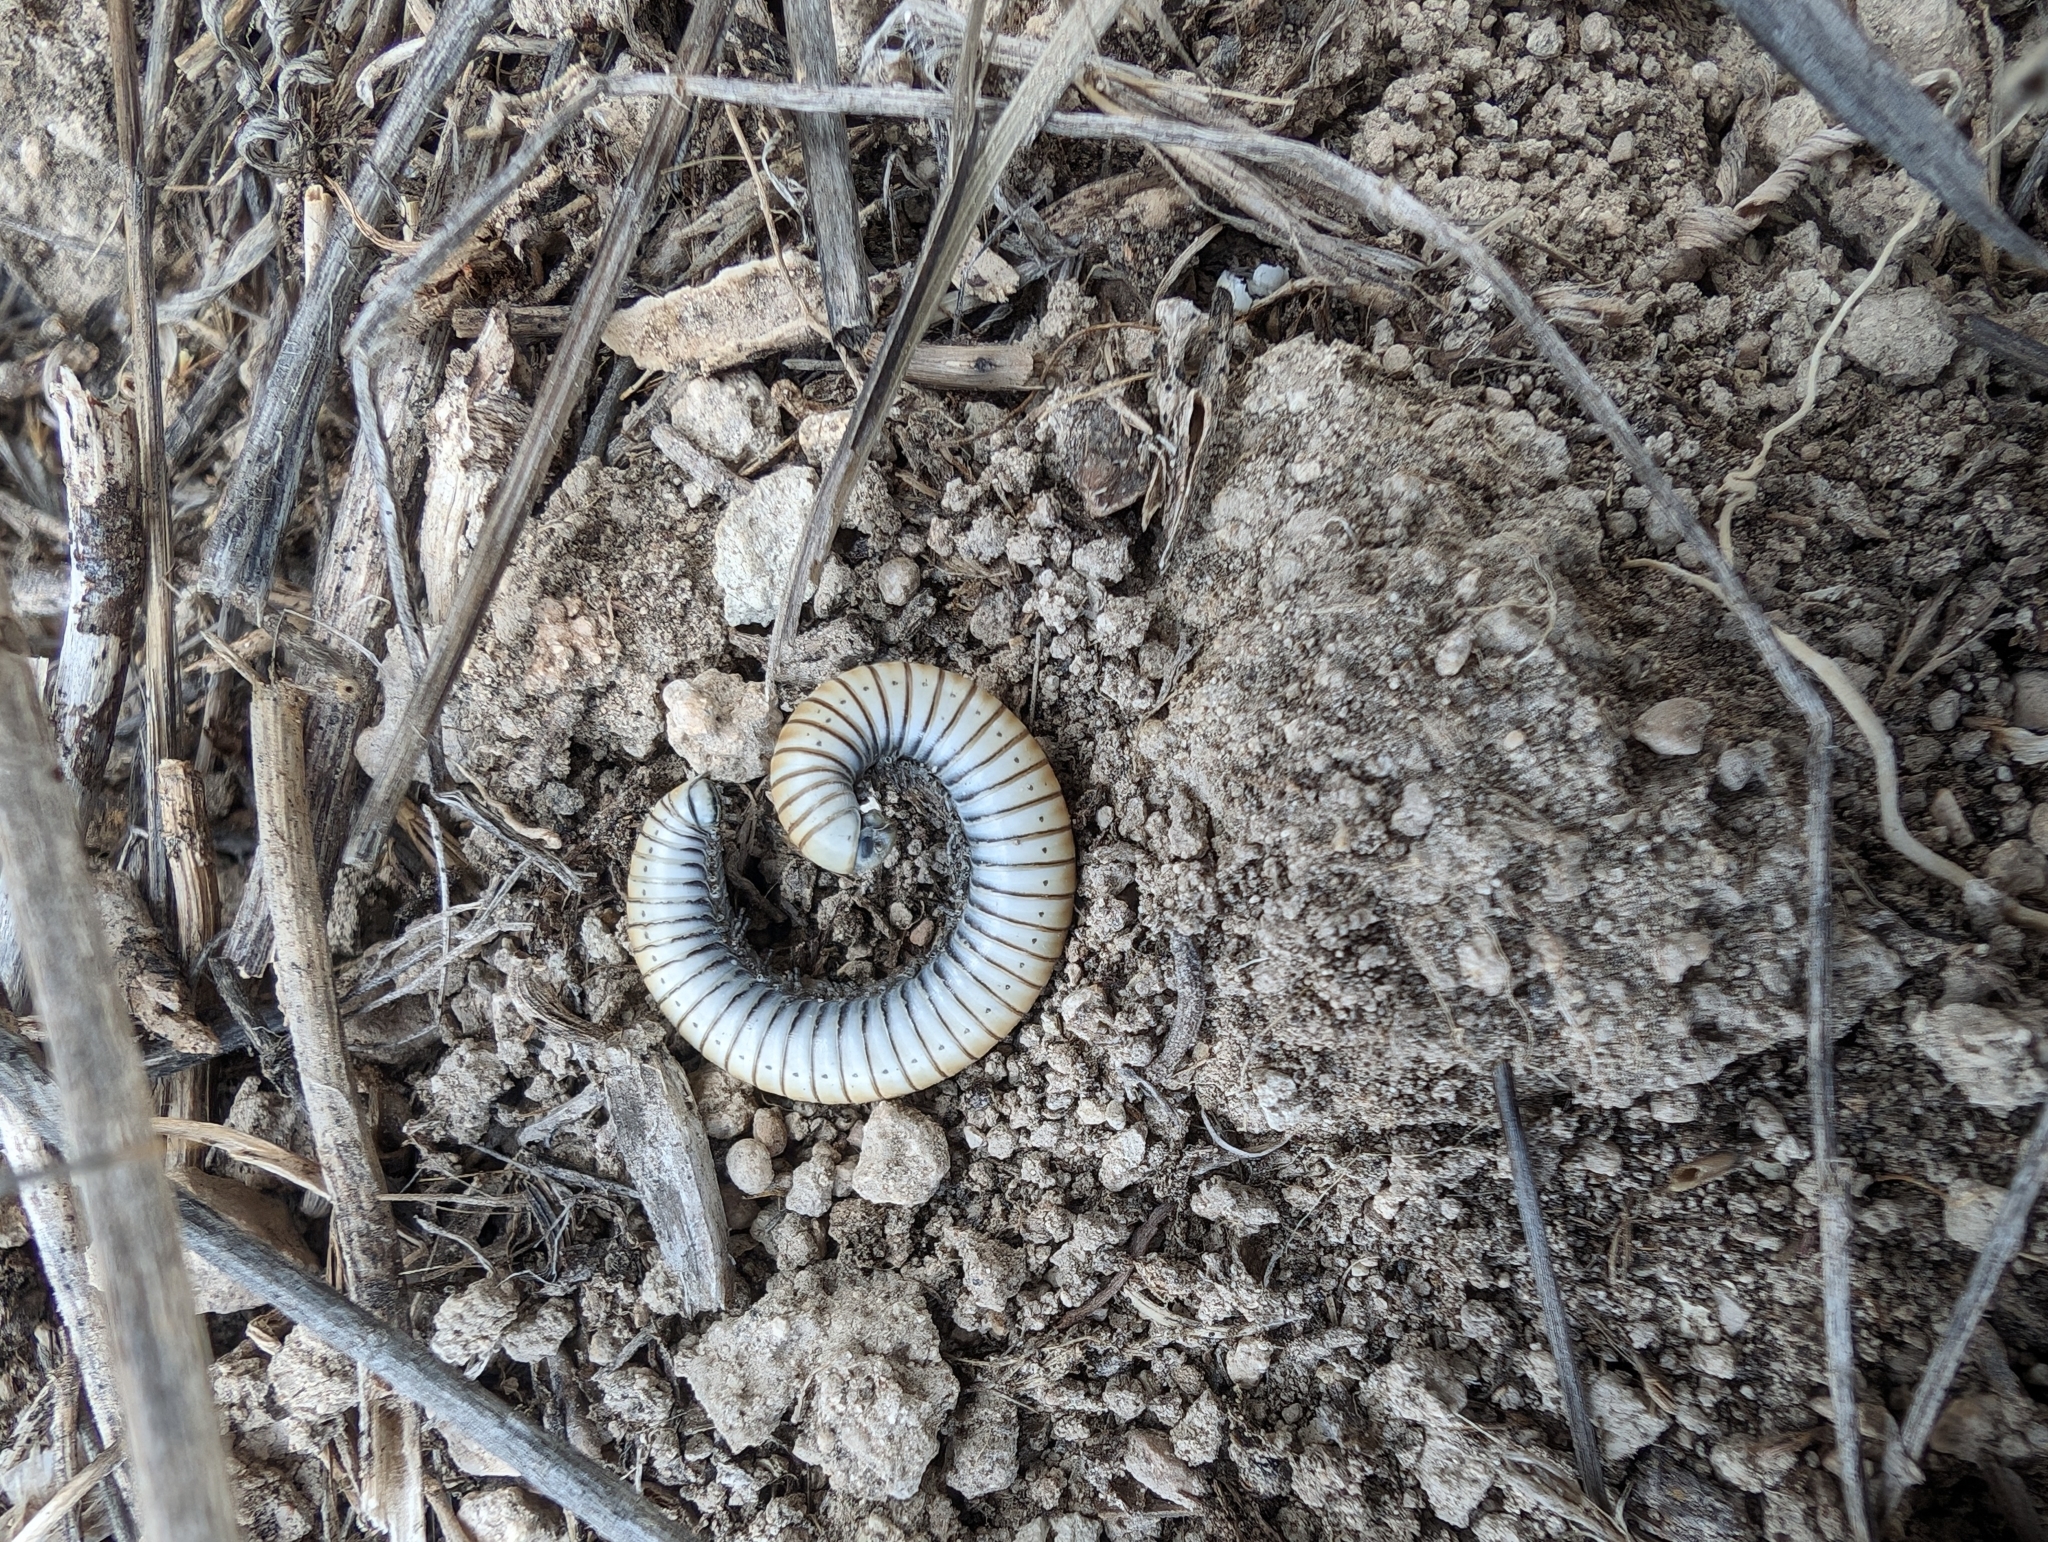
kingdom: Animalia
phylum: Arthropoda
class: Diplopoda
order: Julida
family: Julidae
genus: Ommatoiulus
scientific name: Ommatoiulus rutilans
